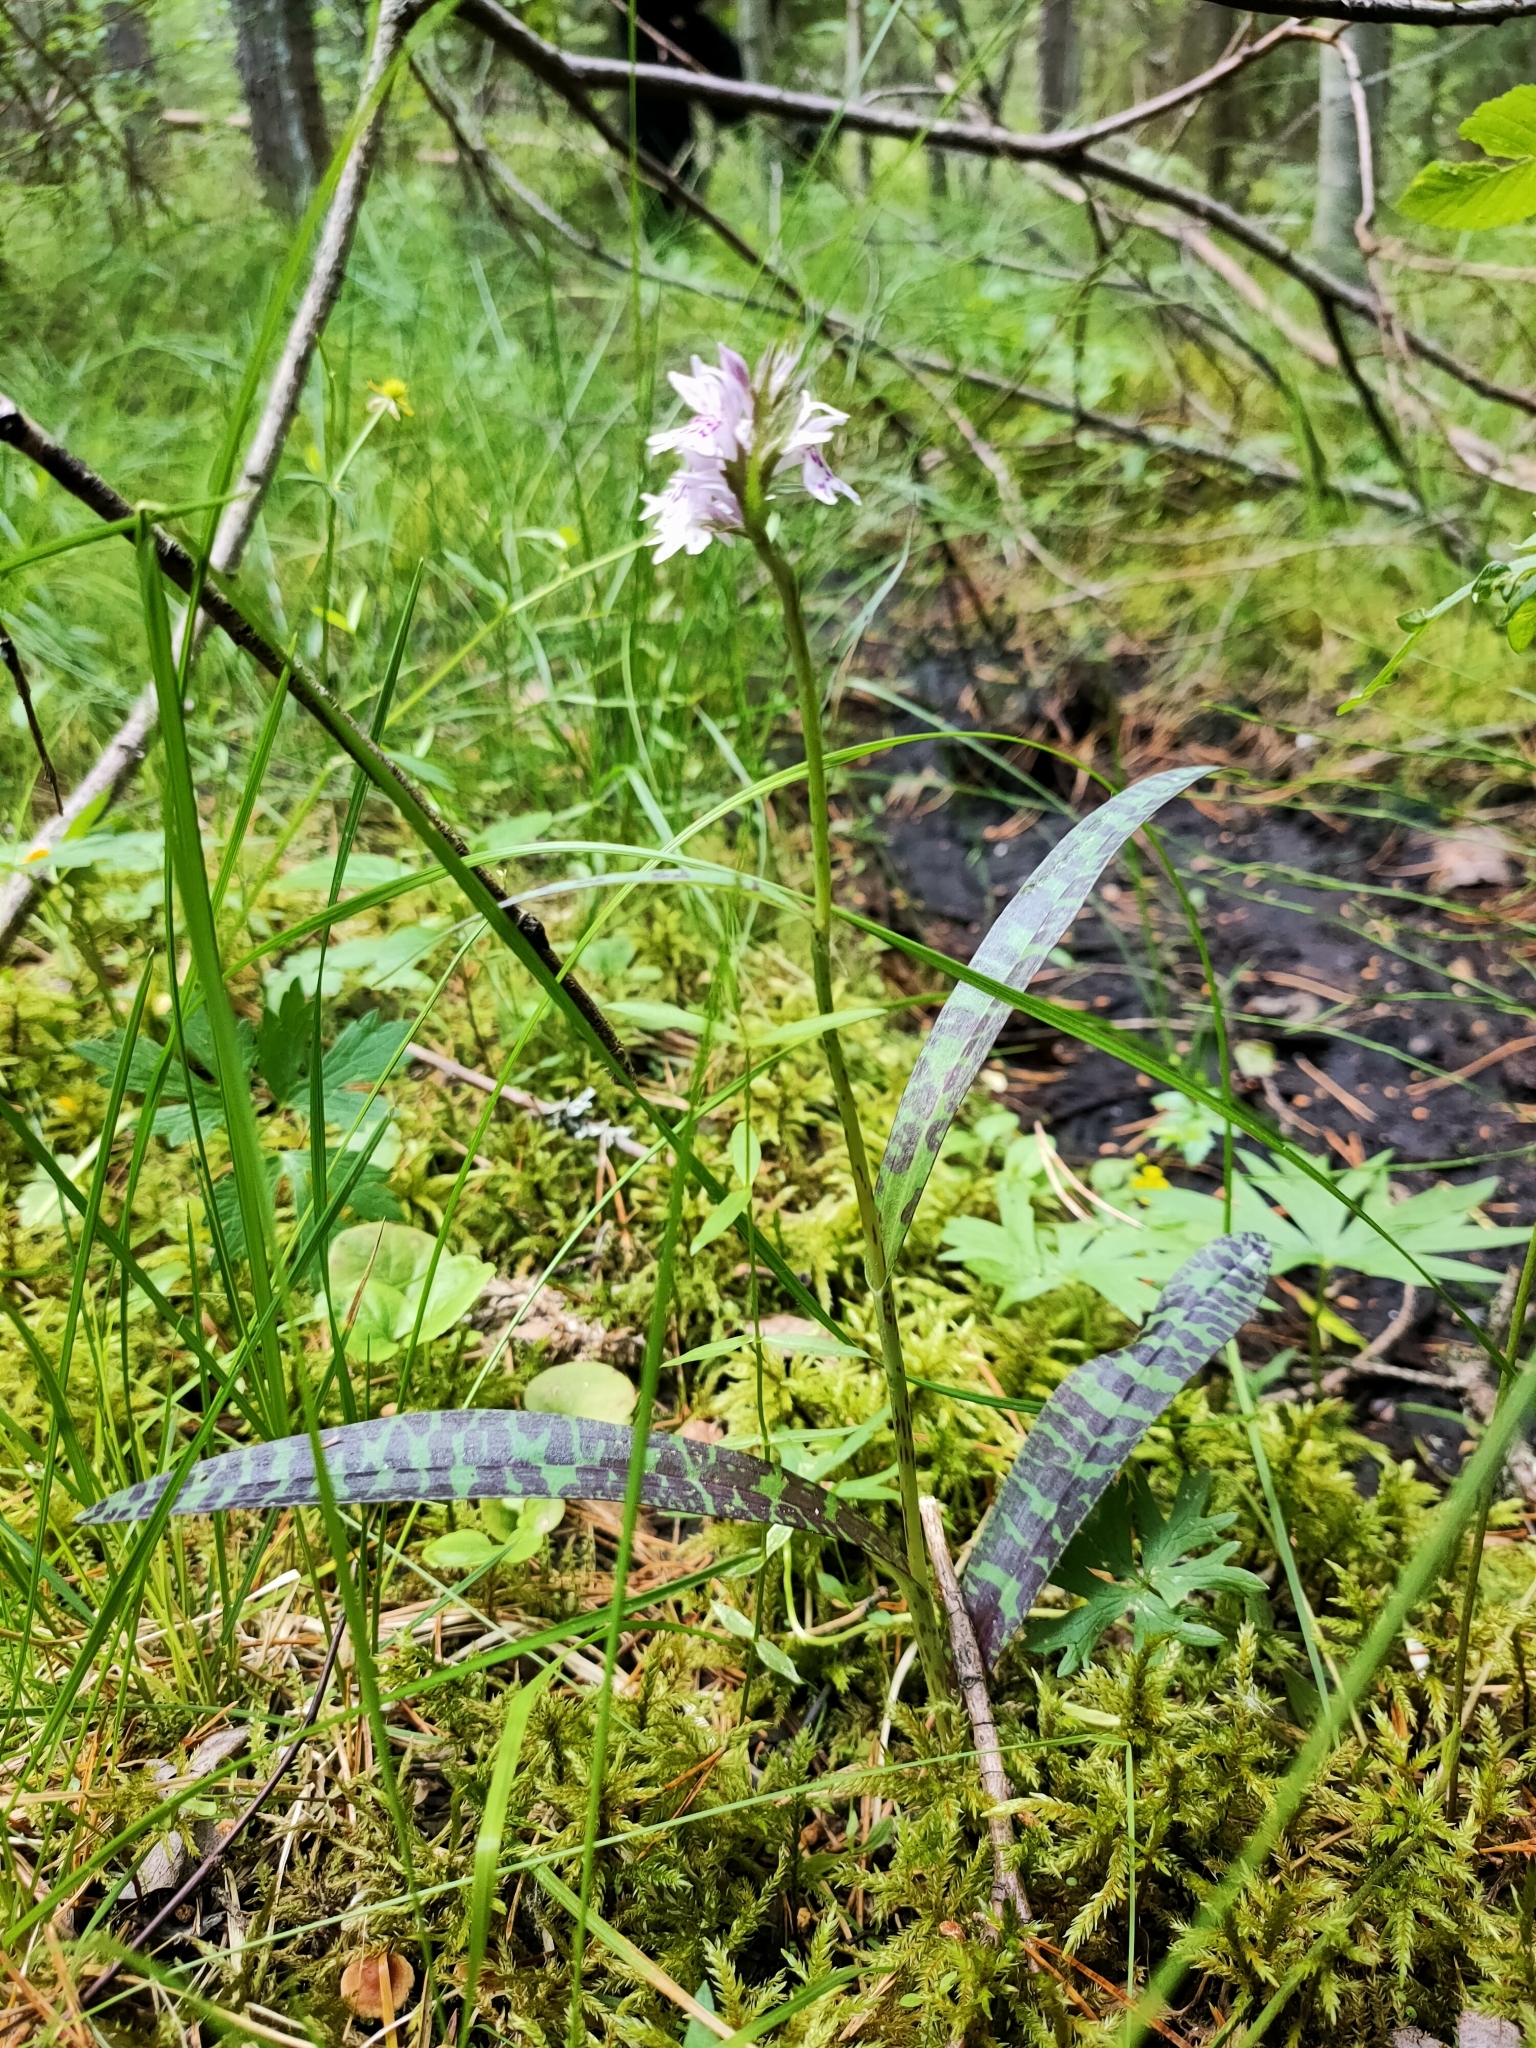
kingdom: Plantae
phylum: Tracheophyta
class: Liliopsida
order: Asparagales
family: Orchidaceae
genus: Dactylorhiza
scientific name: Dactylorhiza maculata
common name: Heath spotted-orchid
